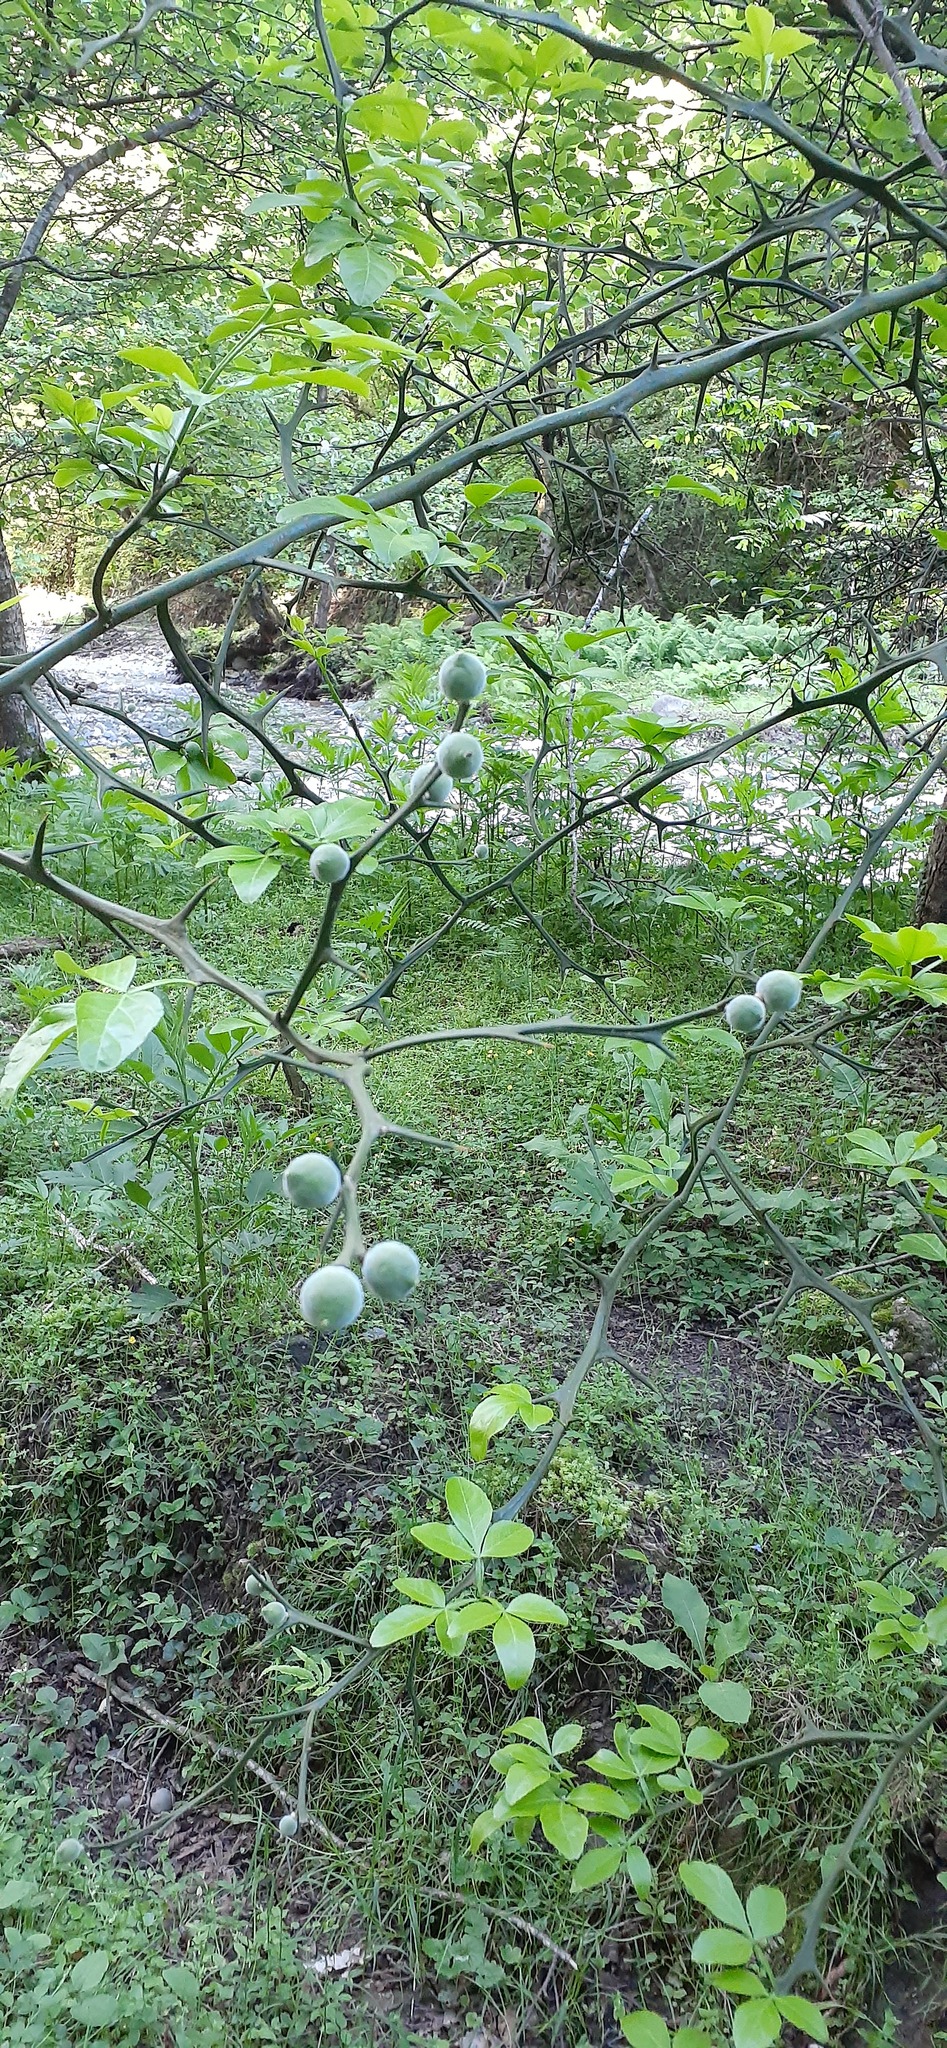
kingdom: Plantae
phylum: Tracheophyta
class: Magnoliopsida
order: Sapindales
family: Rutaceae
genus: Citrus
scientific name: Citrus trifoliata
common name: Japanese bitter-orange
